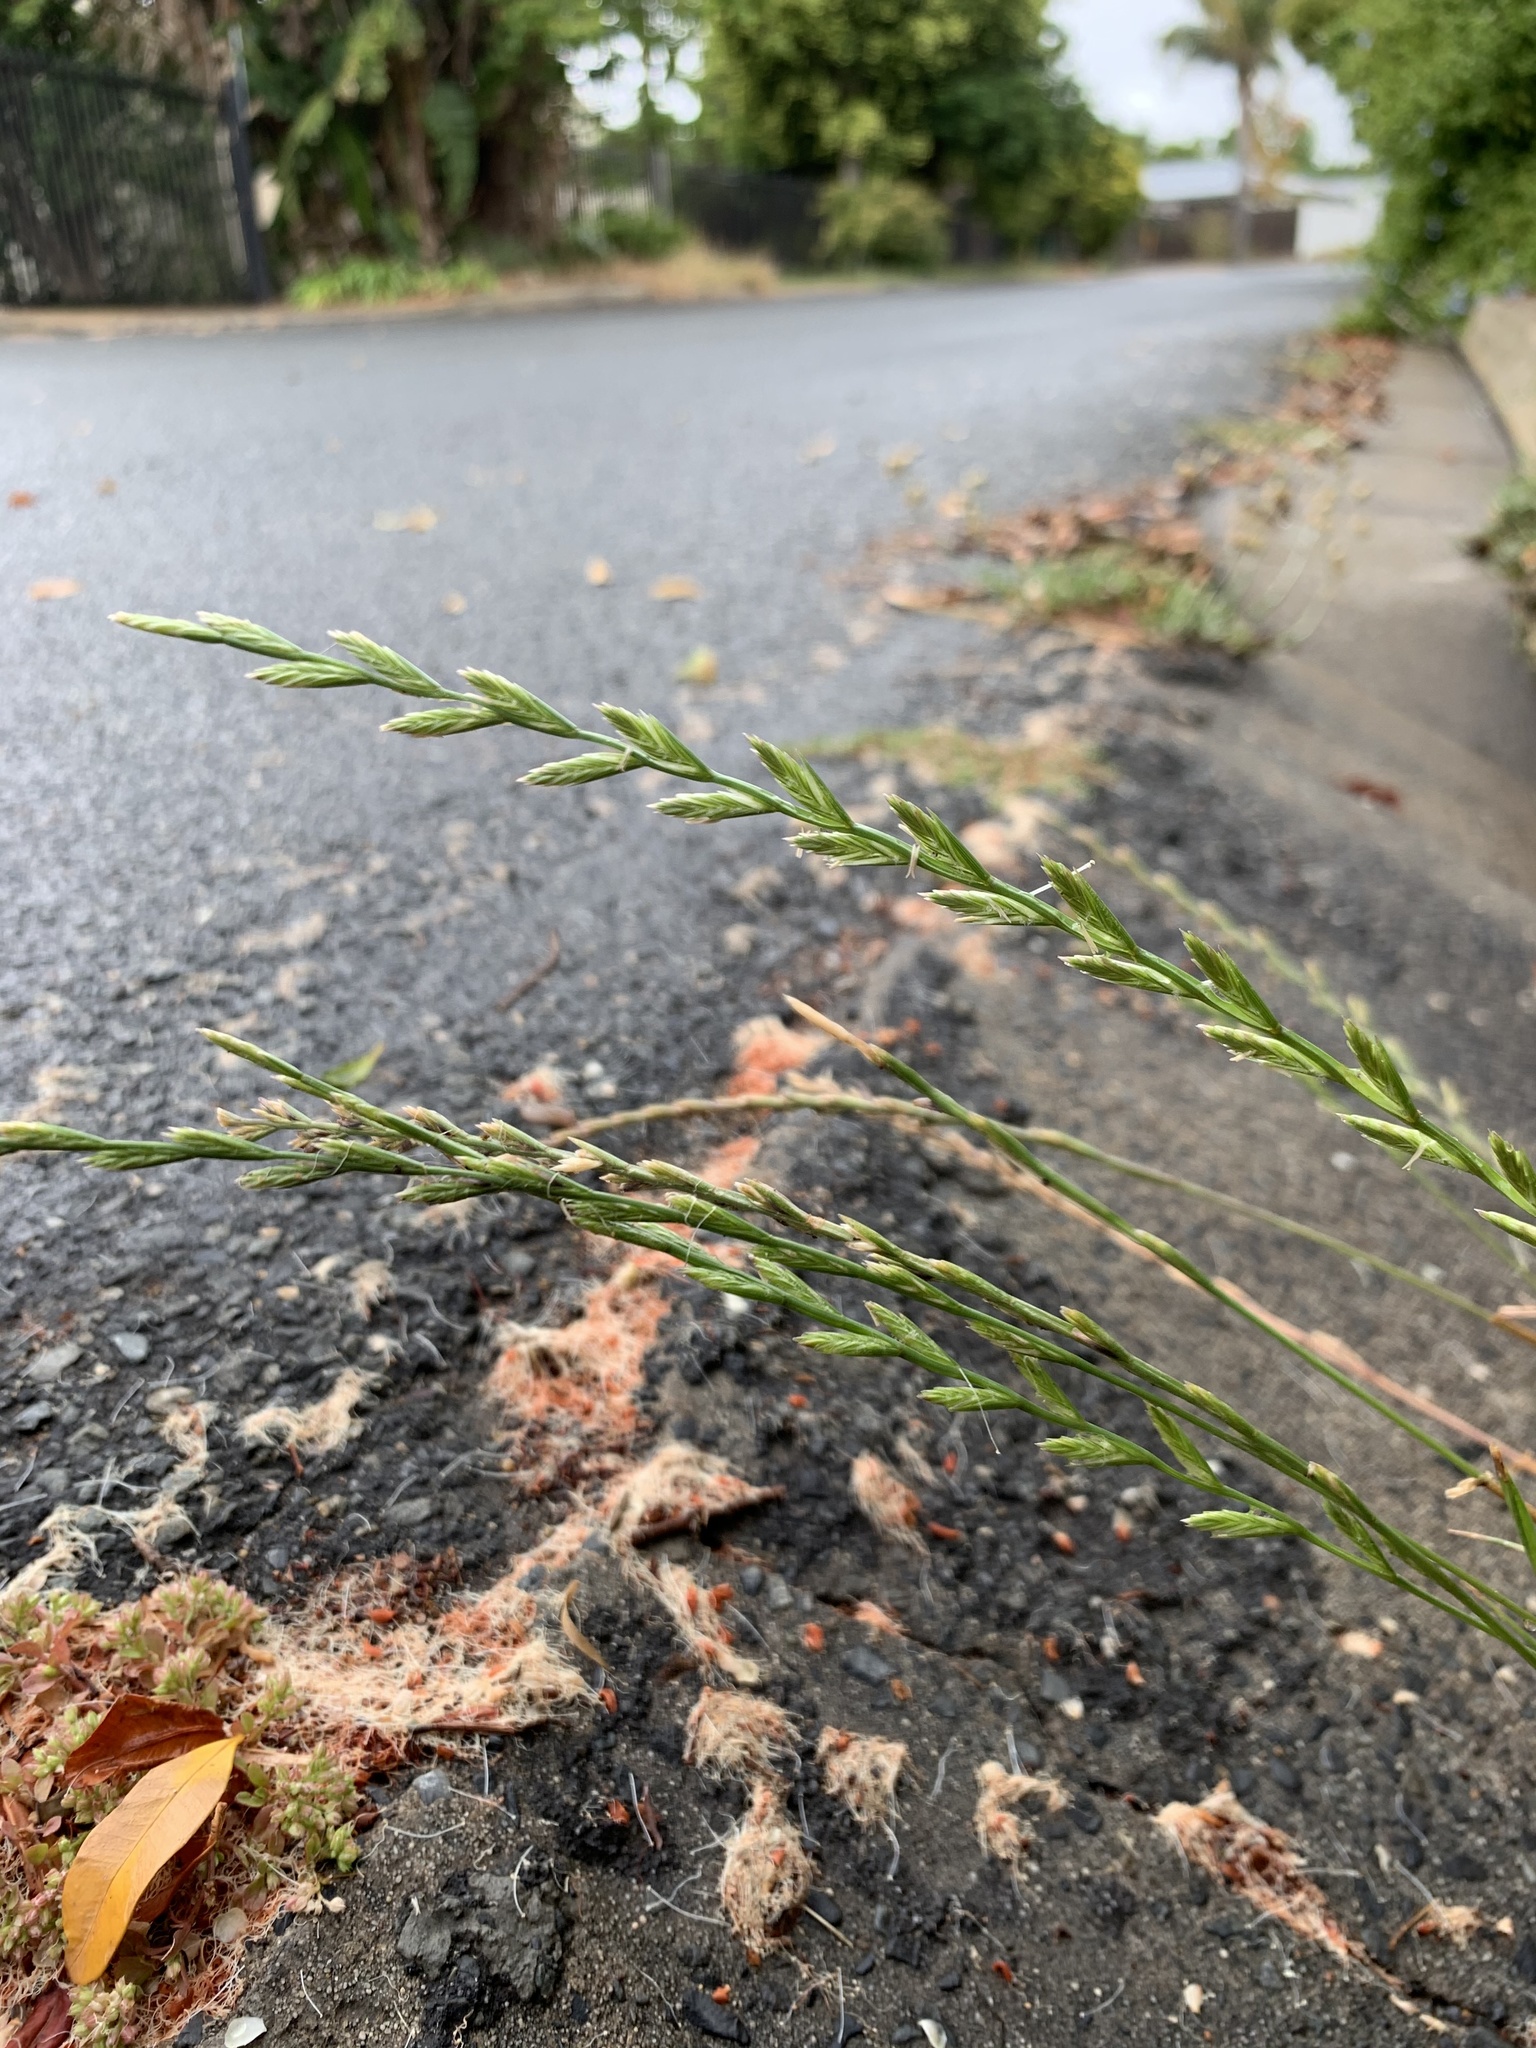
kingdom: Plantae
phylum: Tracheophyta
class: Liliopsida
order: Poales
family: Poaceae
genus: Lolium
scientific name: Lolium perenne
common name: Perennial ryegrass
